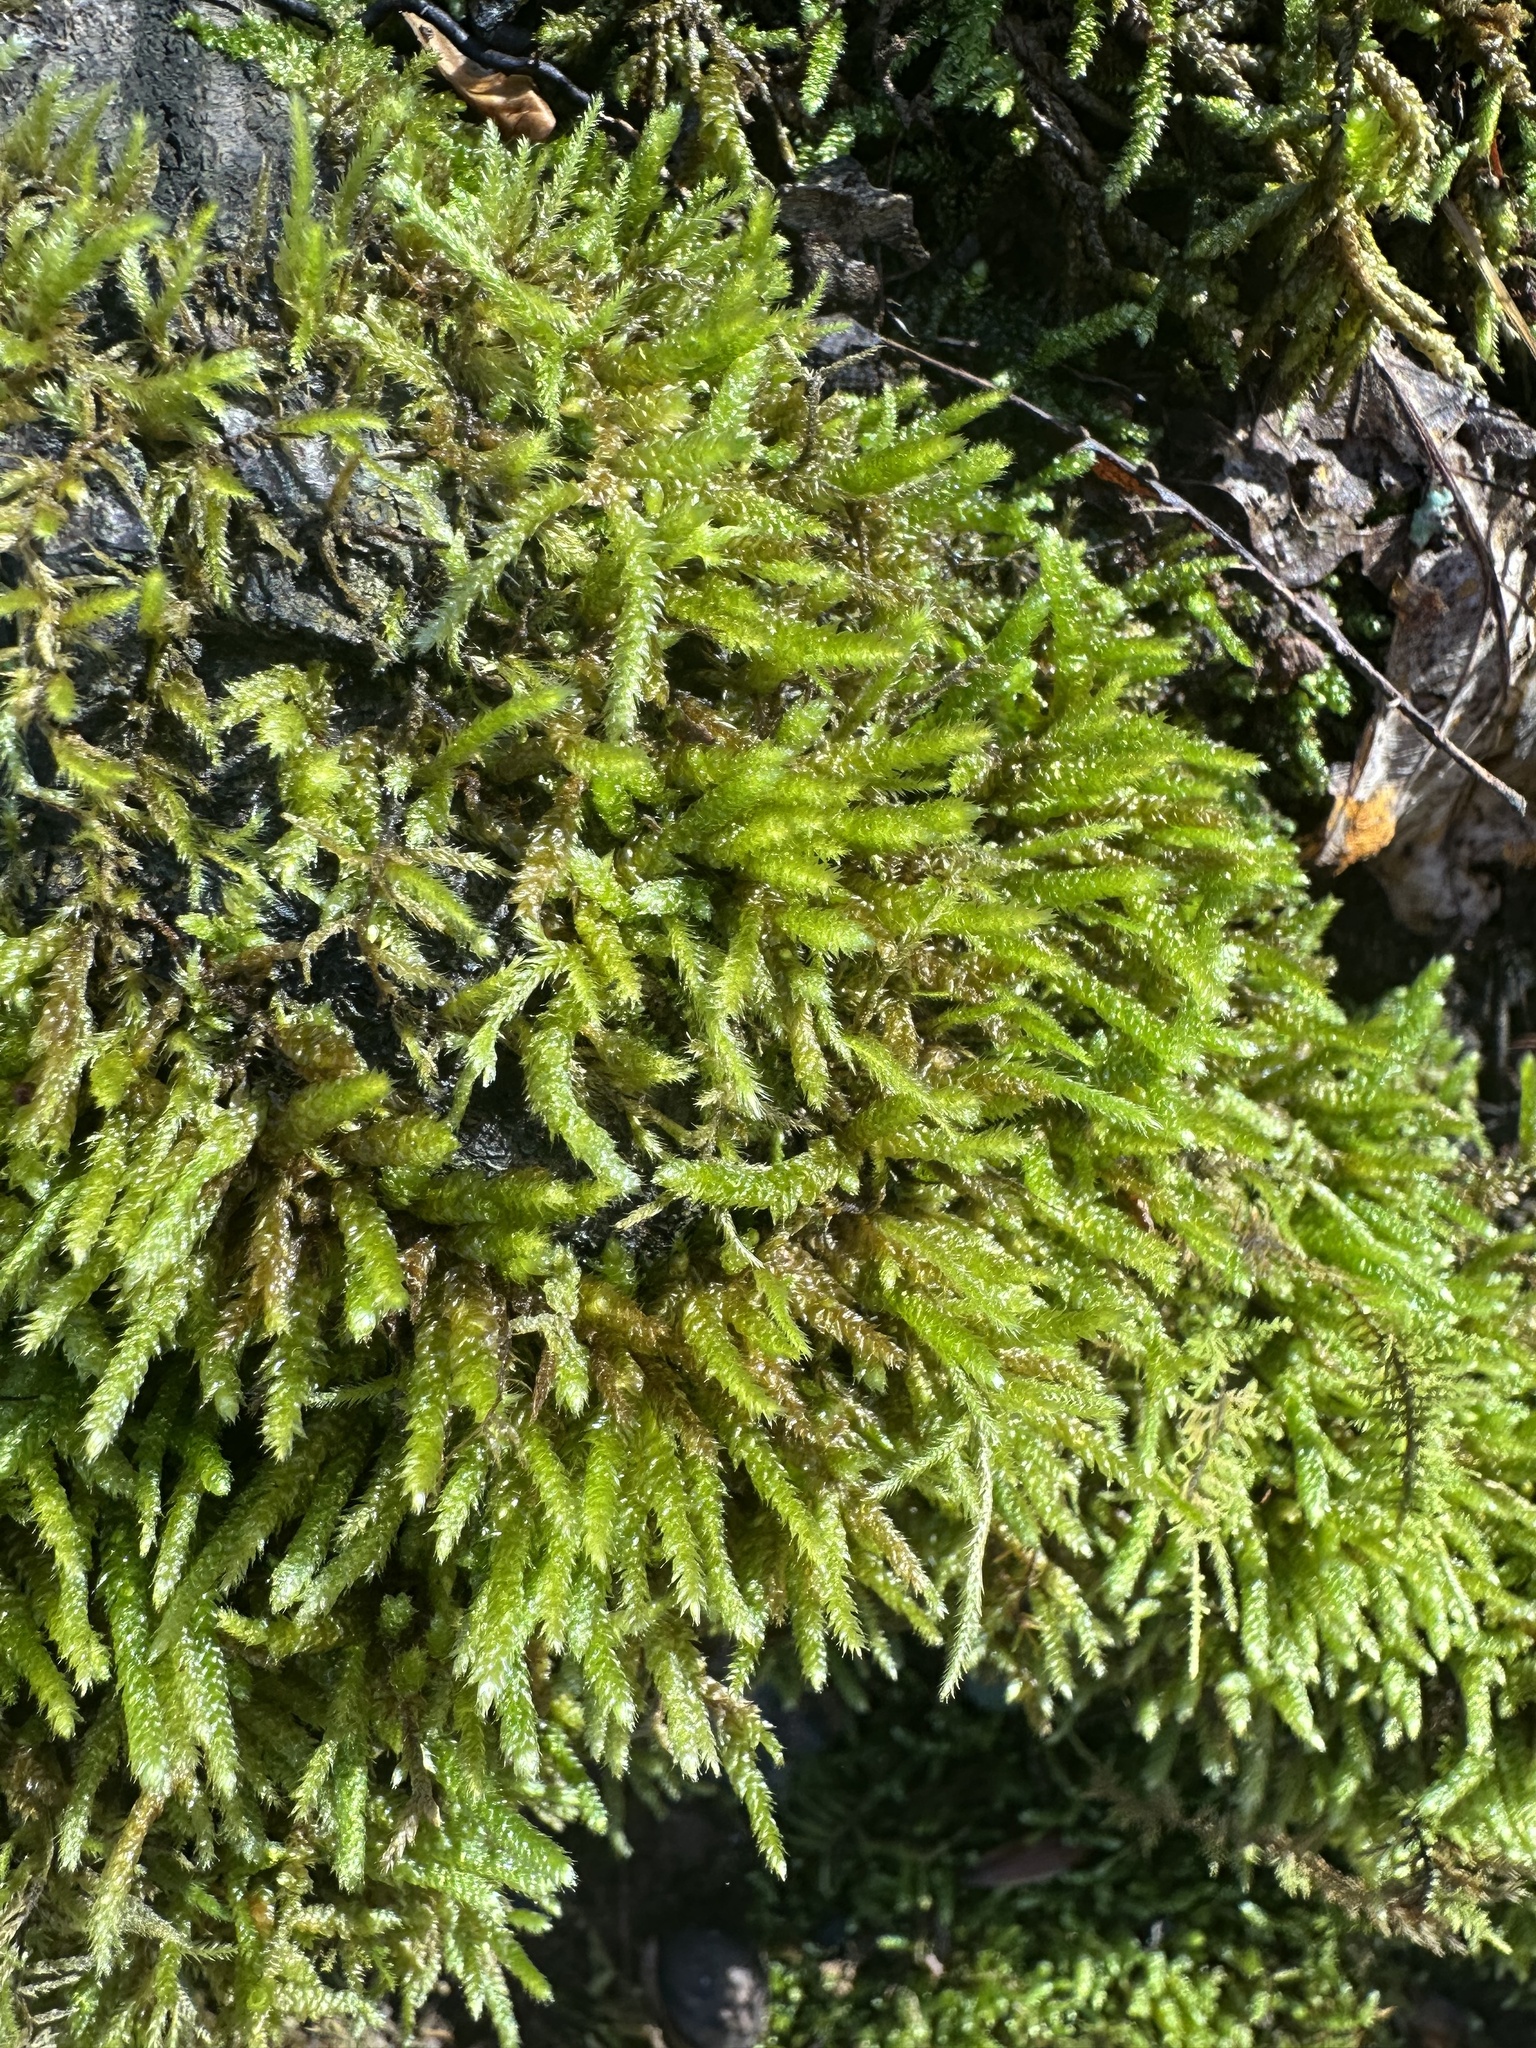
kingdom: Plantae
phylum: Bryophyta
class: Bryopsida
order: Hypnales
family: Brachytheciaceae
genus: Bryoandersonia
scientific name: Bryoandersonia illecebra
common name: Spoon-leaved moss
